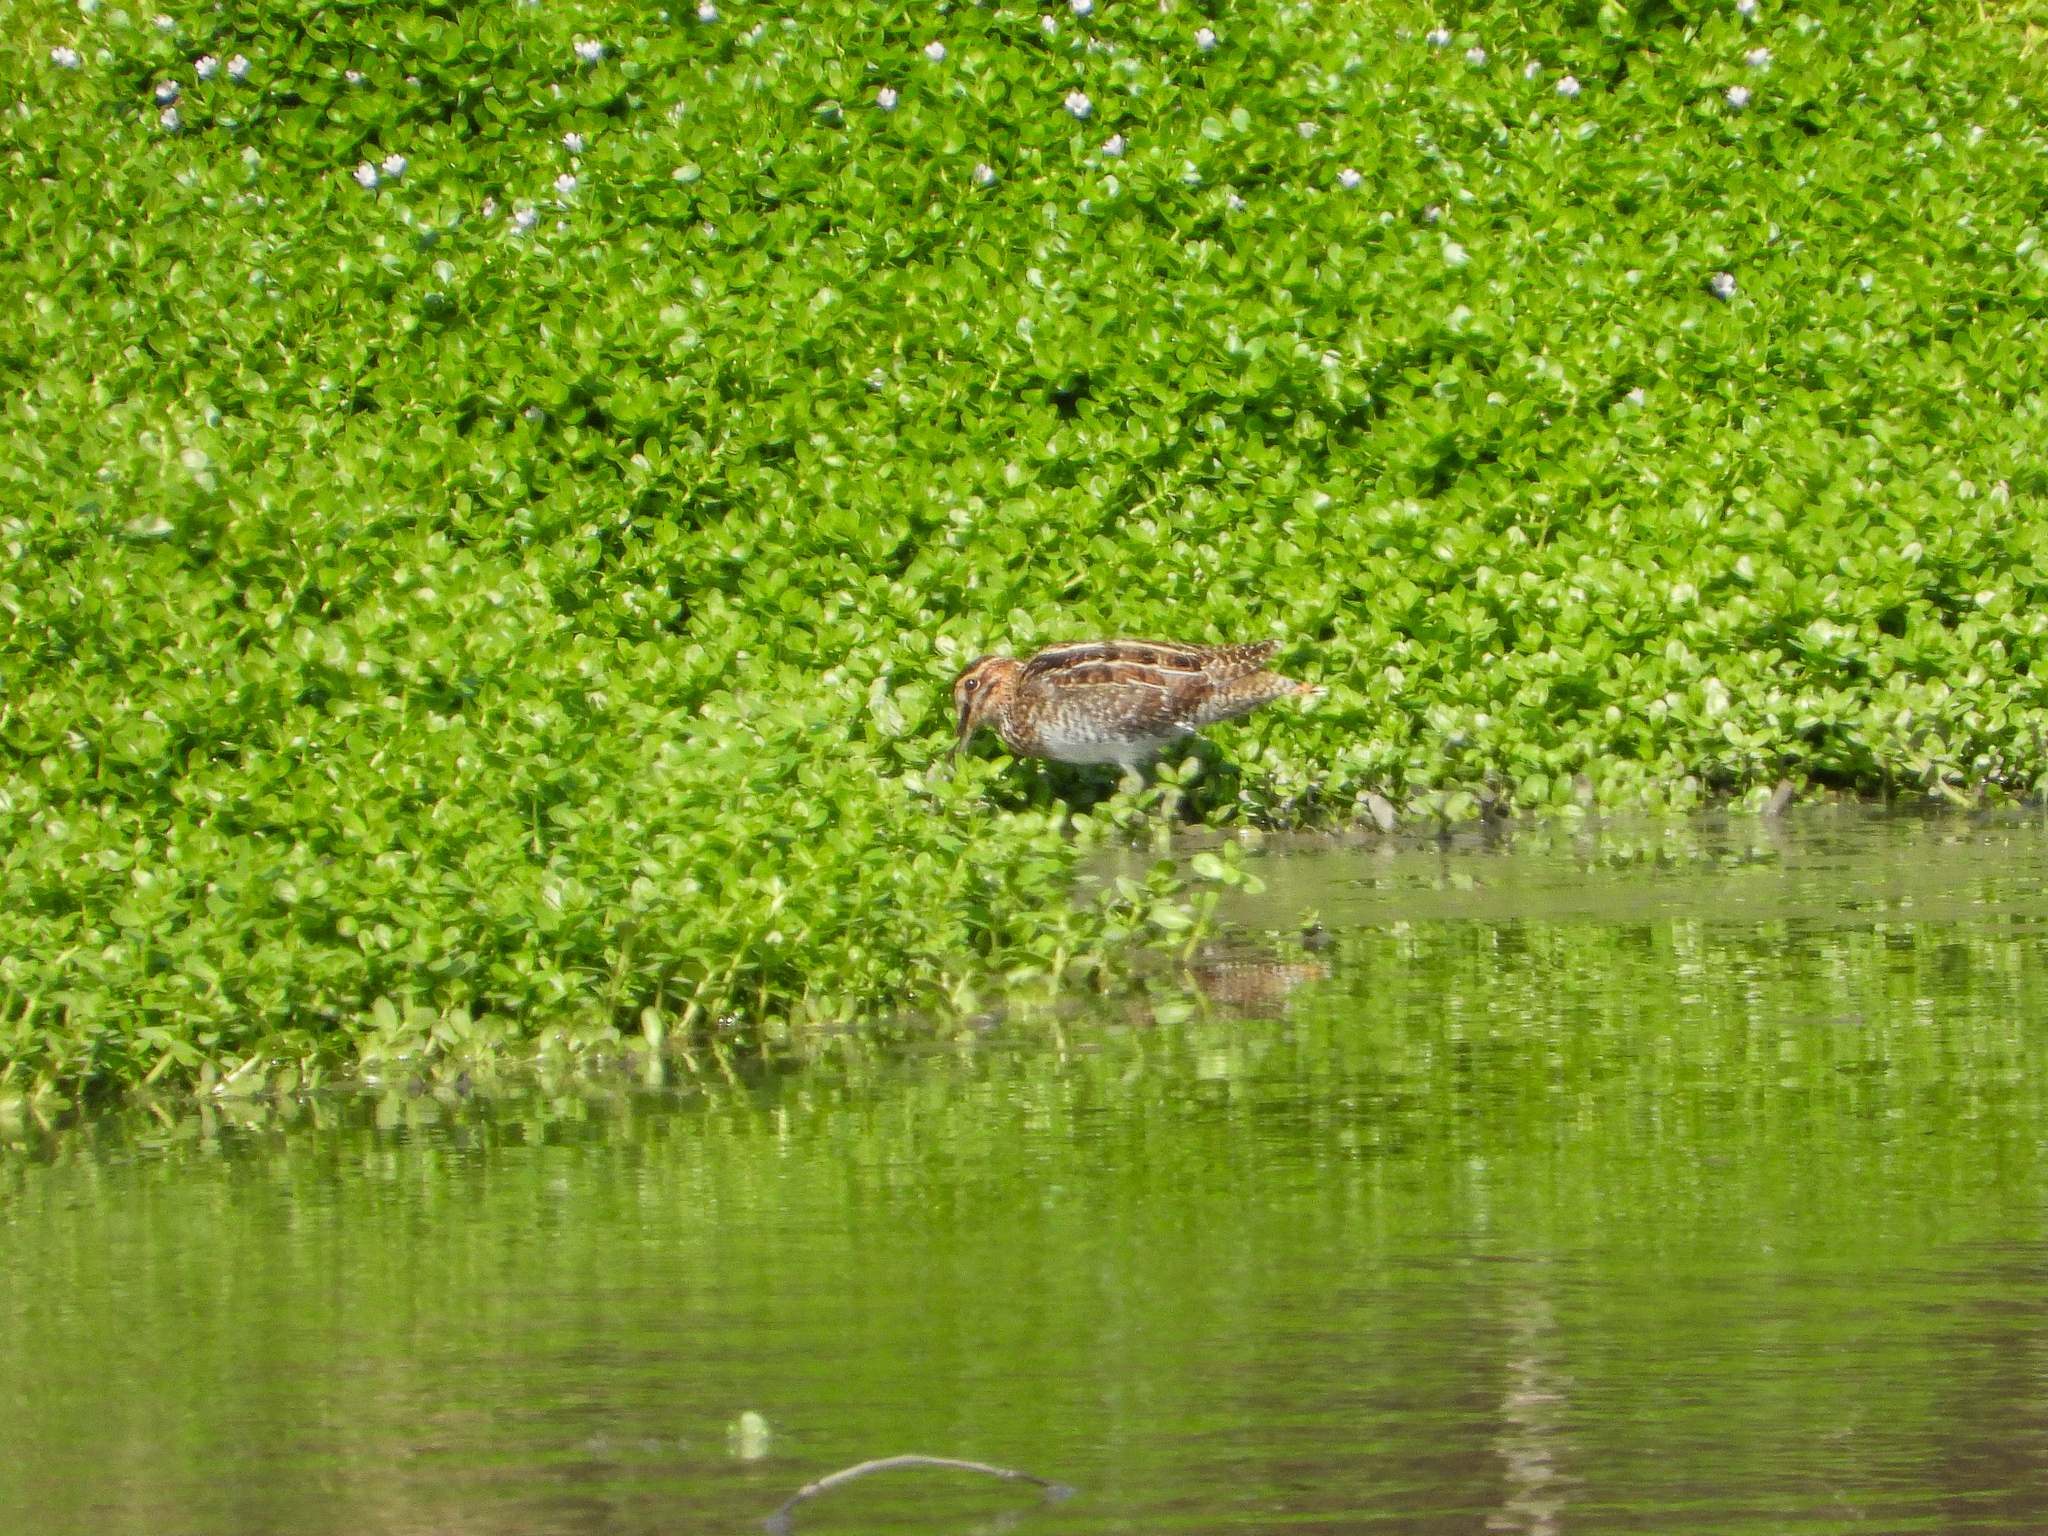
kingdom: Animalia
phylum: Chordata
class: Aves
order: Charadriiformes
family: Scolopacidae
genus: Gallinago
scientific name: Gallinago delicata
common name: Wilson's snipe
